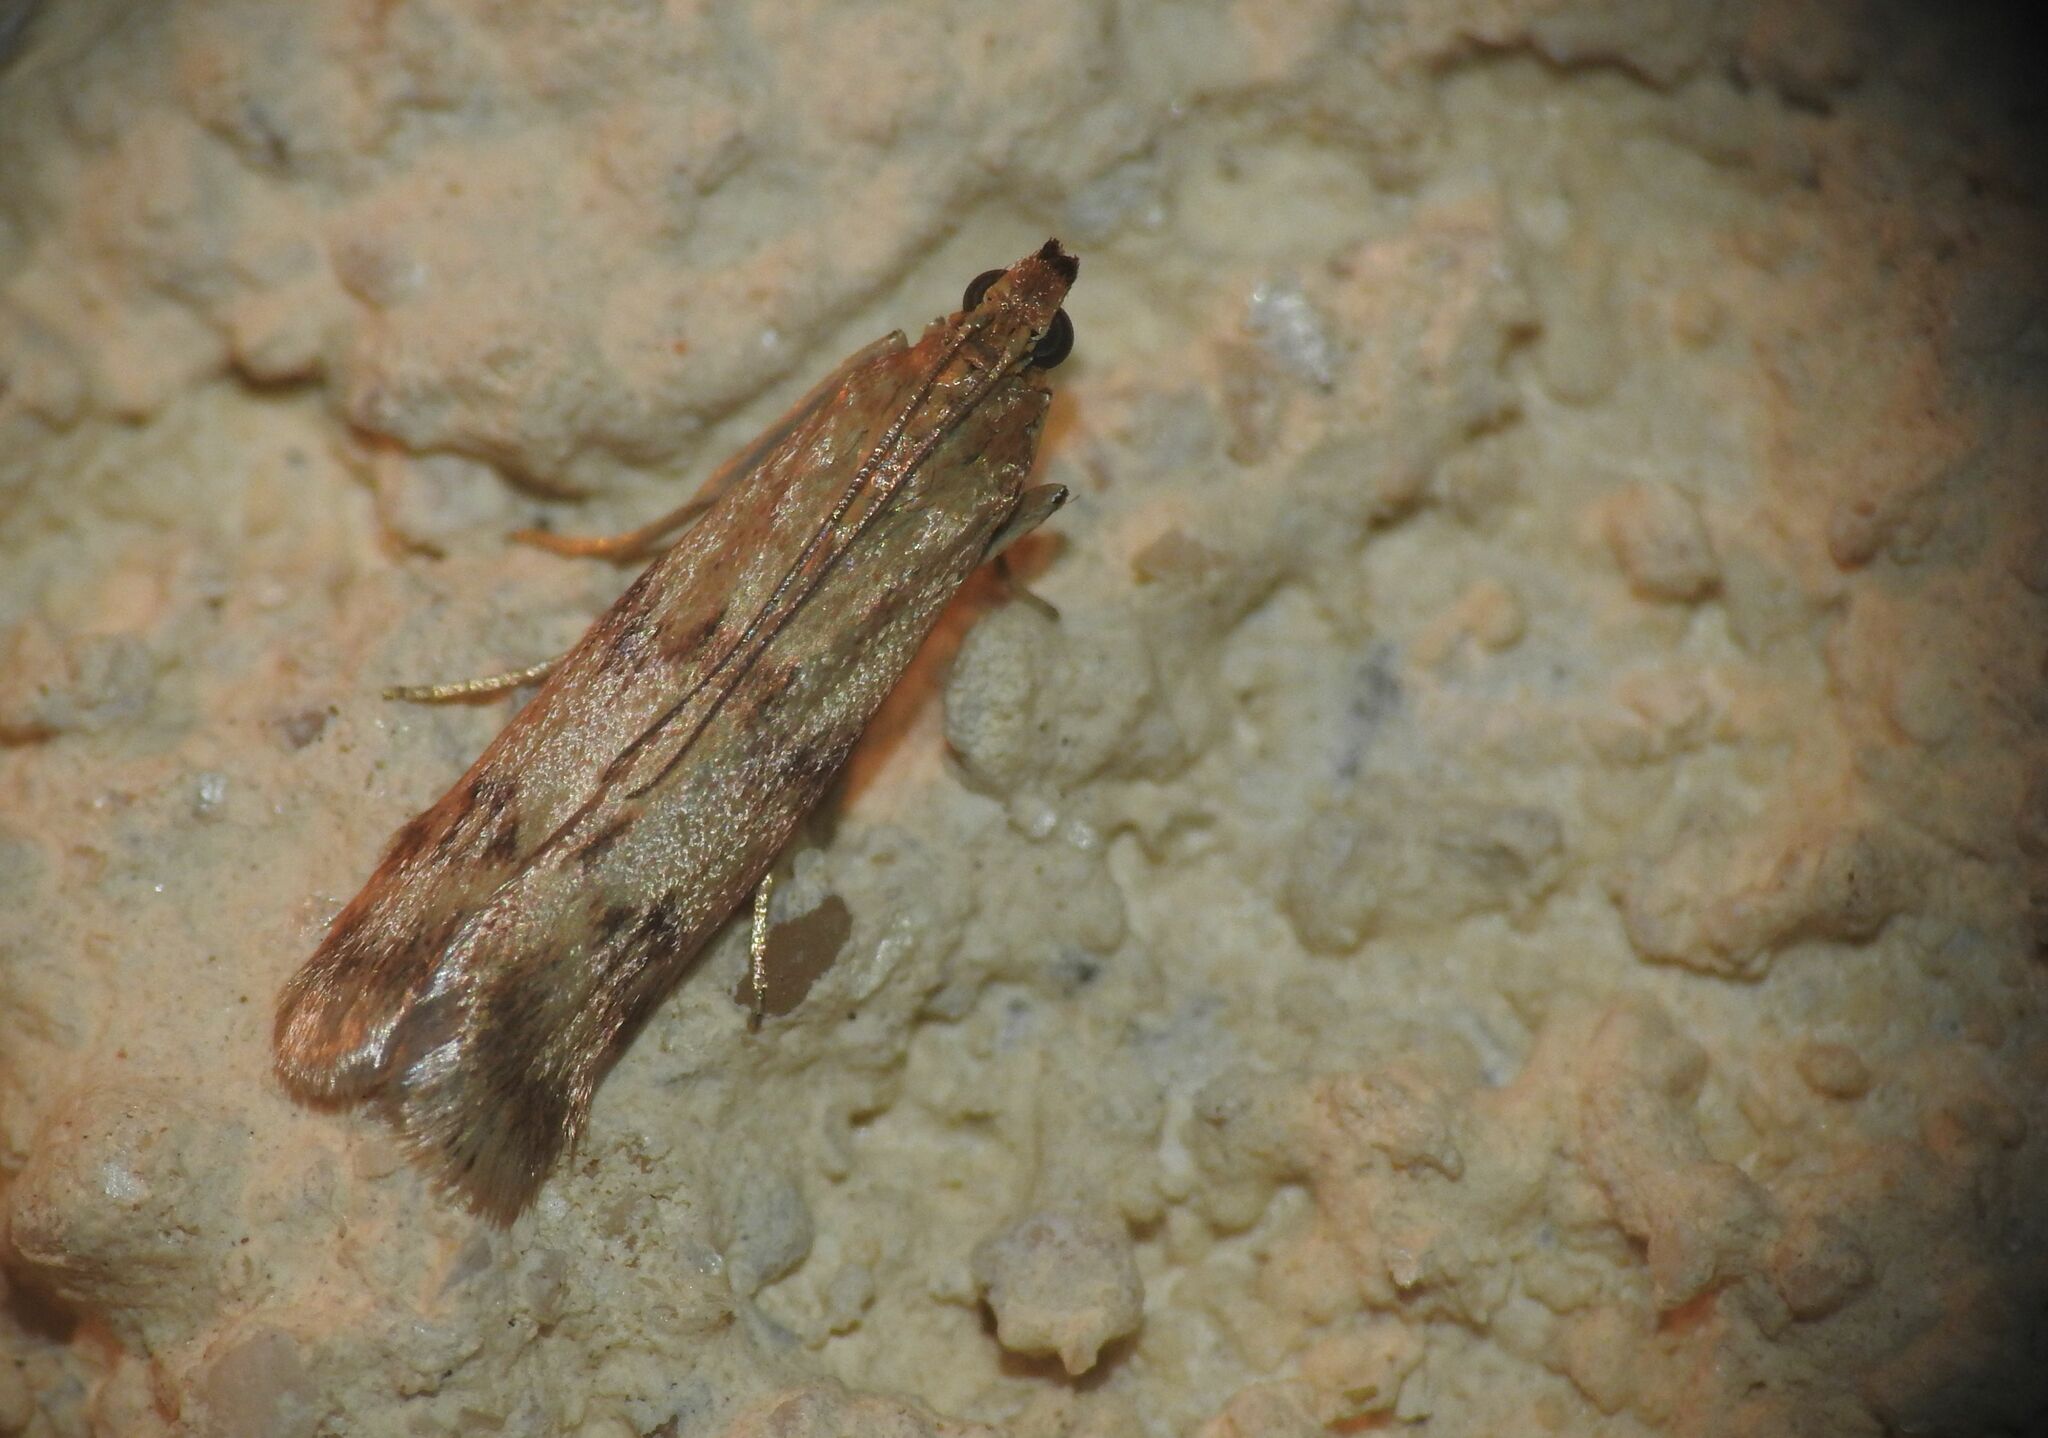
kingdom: Animalia
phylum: Arthropoda
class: Insecta
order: Lepidoptera
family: Pyralidae
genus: Homoeosoma
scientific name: Homoeosoma sinuella
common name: Twin-barred knot-horn
